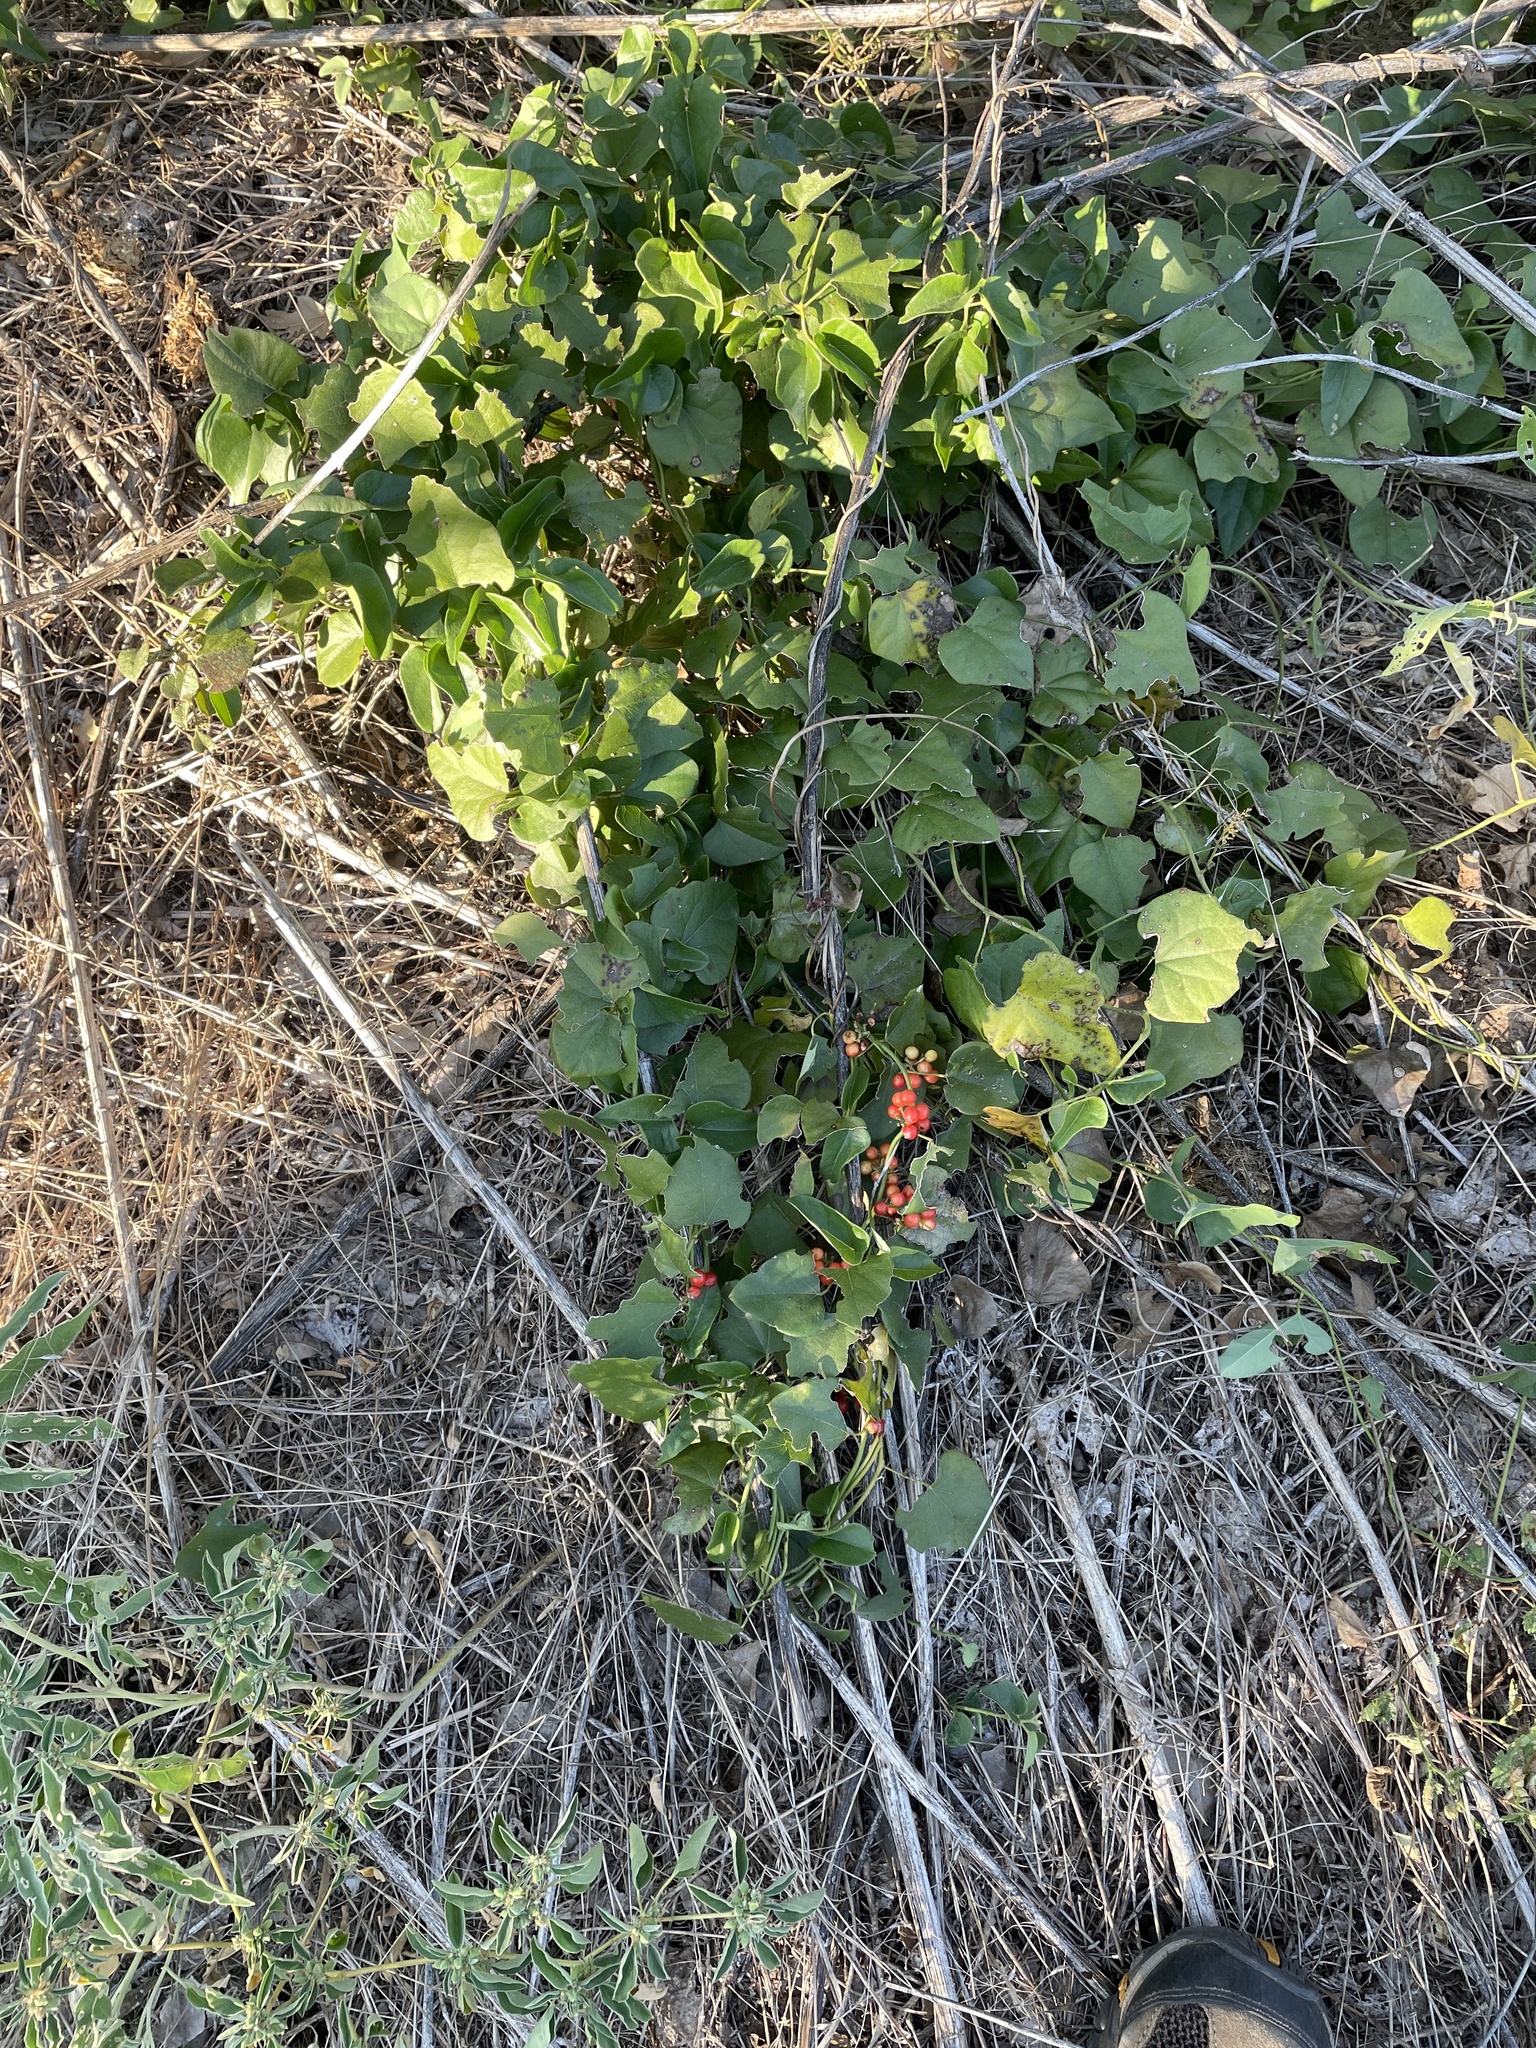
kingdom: Plantae
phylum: Tracheophyta
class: Magnoliopsida
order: Ranunculales
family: Menispermaceae
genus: Cocculus
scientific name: Cocculus carolinus
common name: Carolina moonseed
